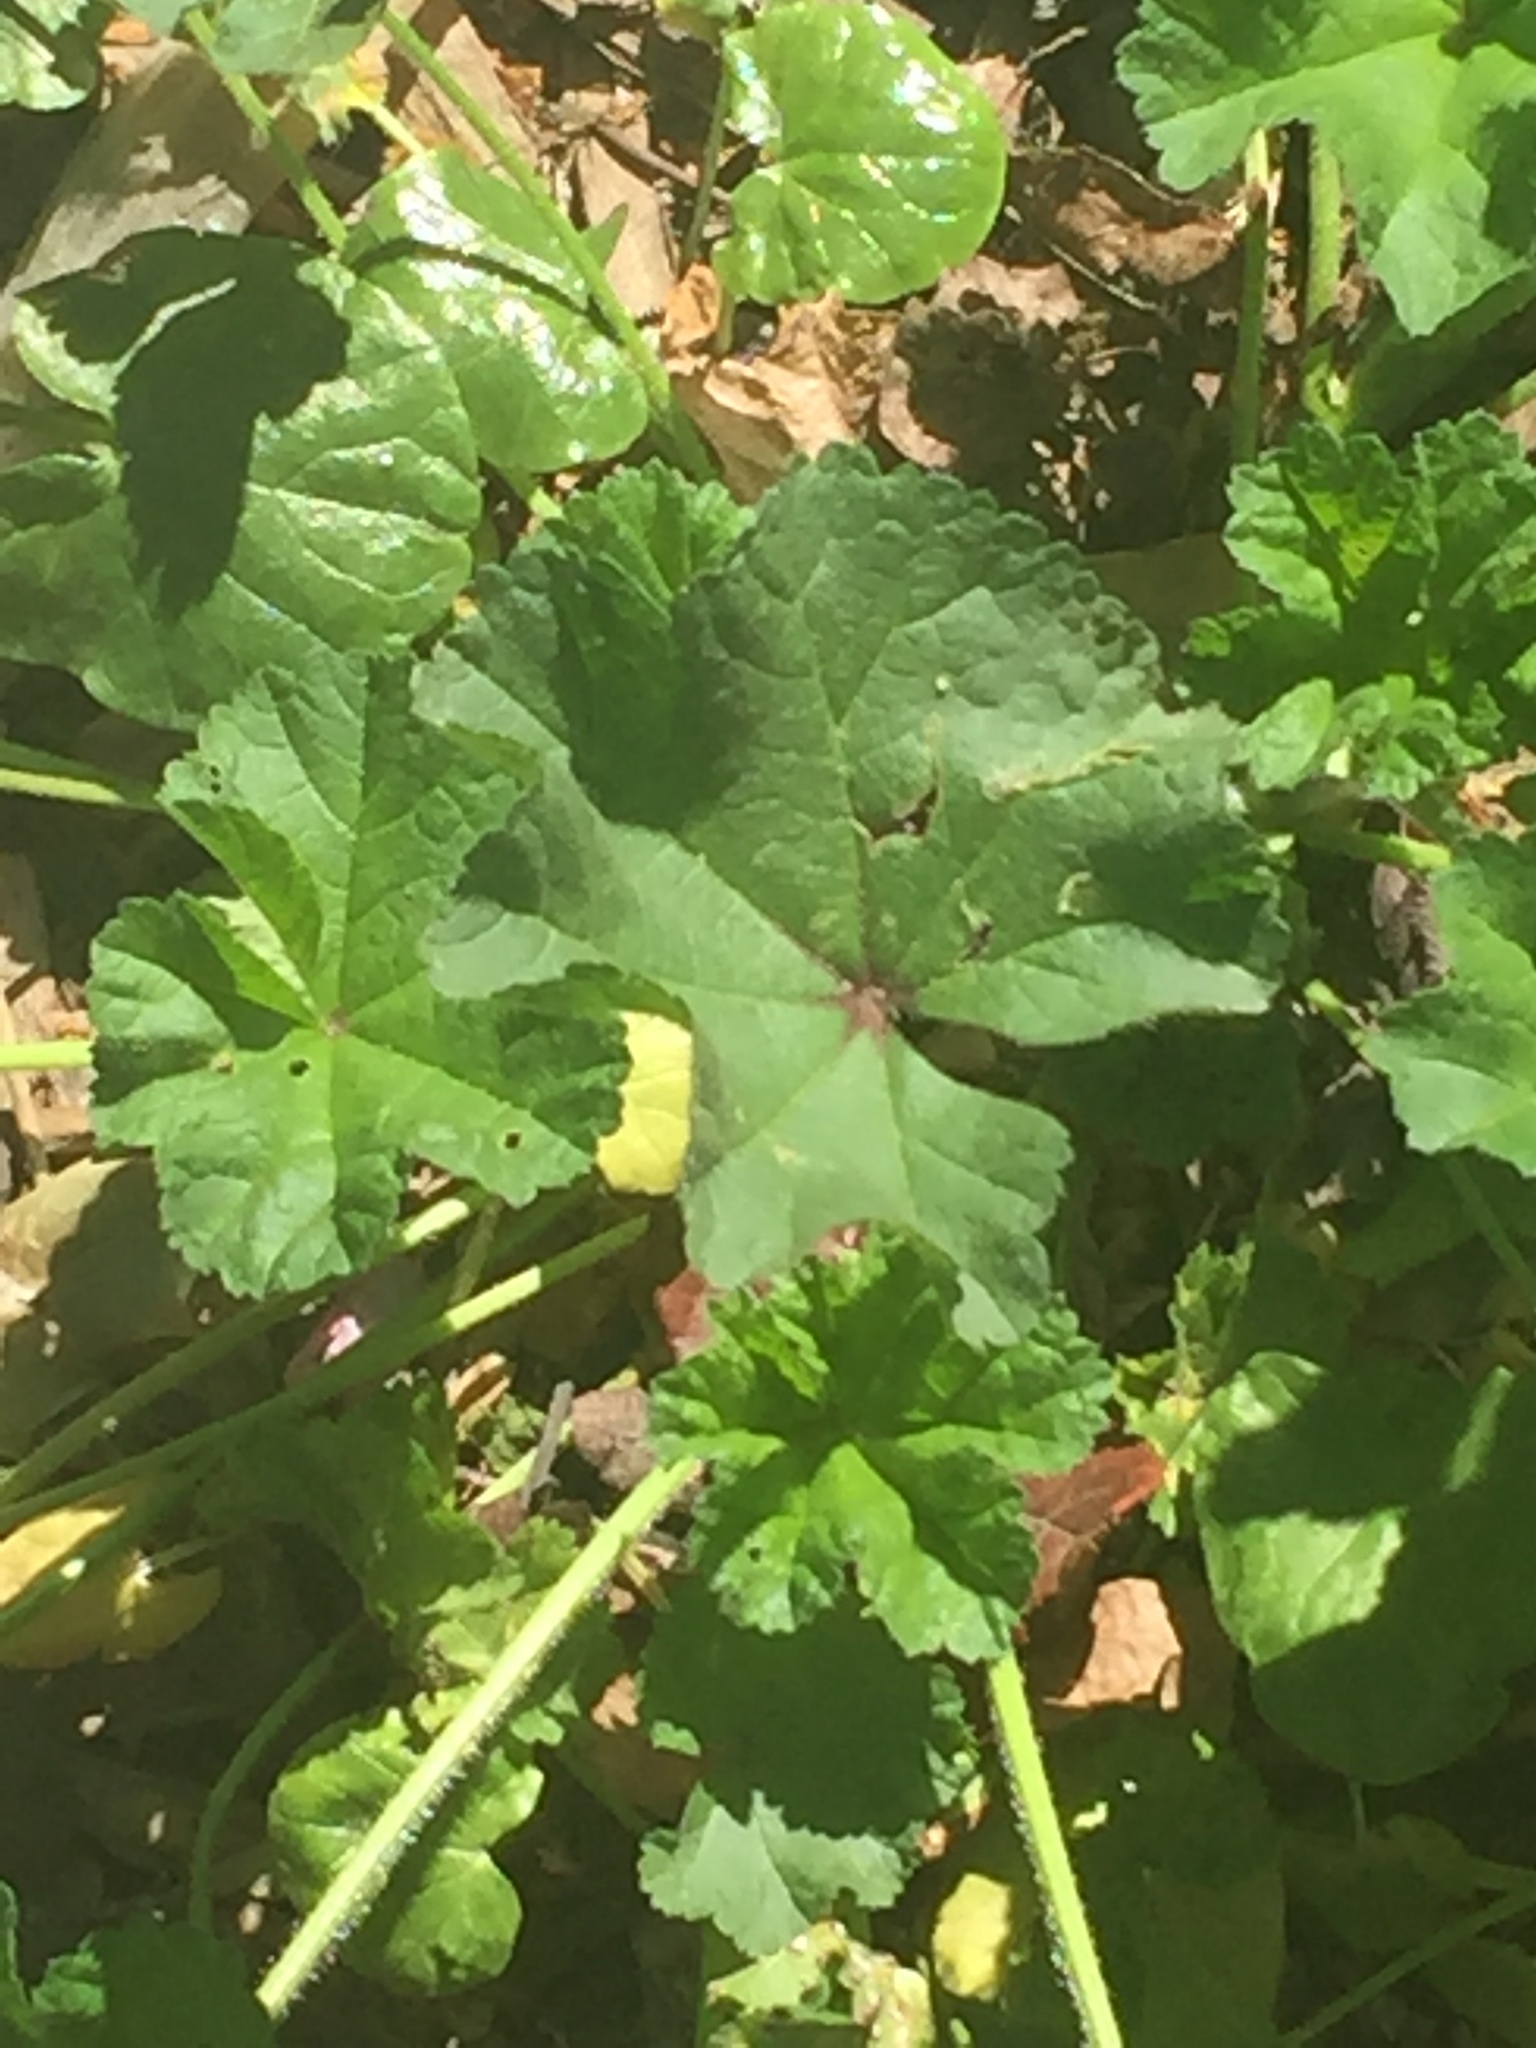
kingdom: Plantae
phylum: Tracheophyta
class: Magnoliopsida
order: Malvales
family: Malvaceae
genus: Malva
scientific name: Malva sylvestris
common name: Common mallow
